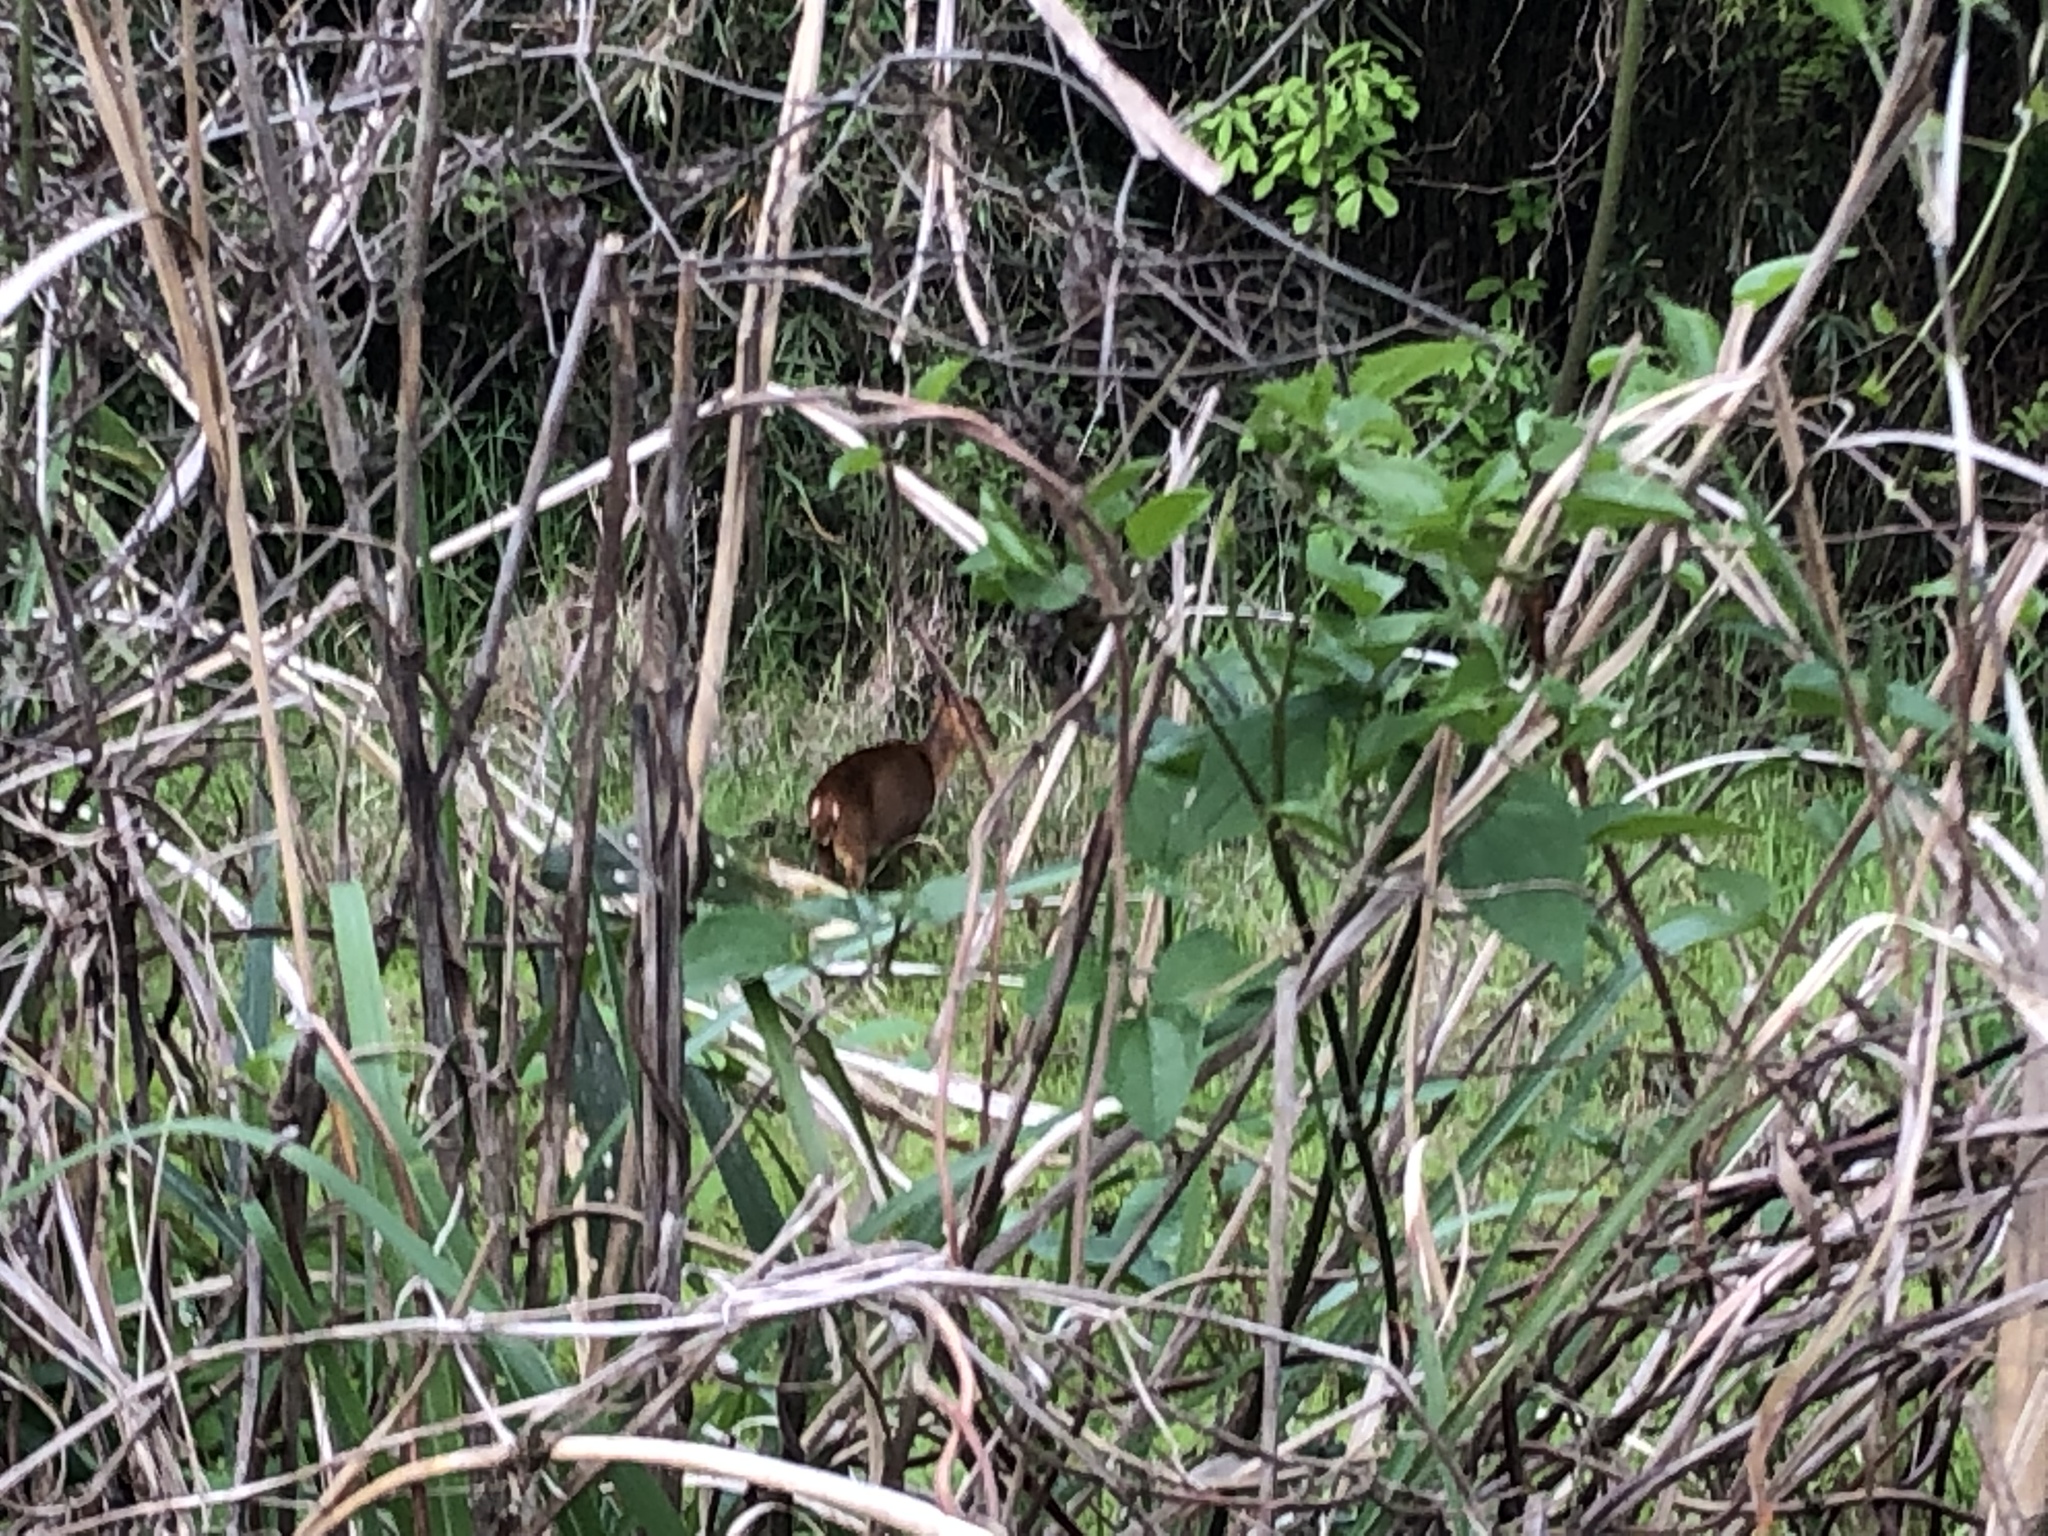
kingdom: Animalia
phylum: Chordata
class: Mammalia
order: Artiodactyla
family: Cervidae
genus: Muntiacus
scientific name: Muntiacus reevesi
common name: Reeves' muntjac
